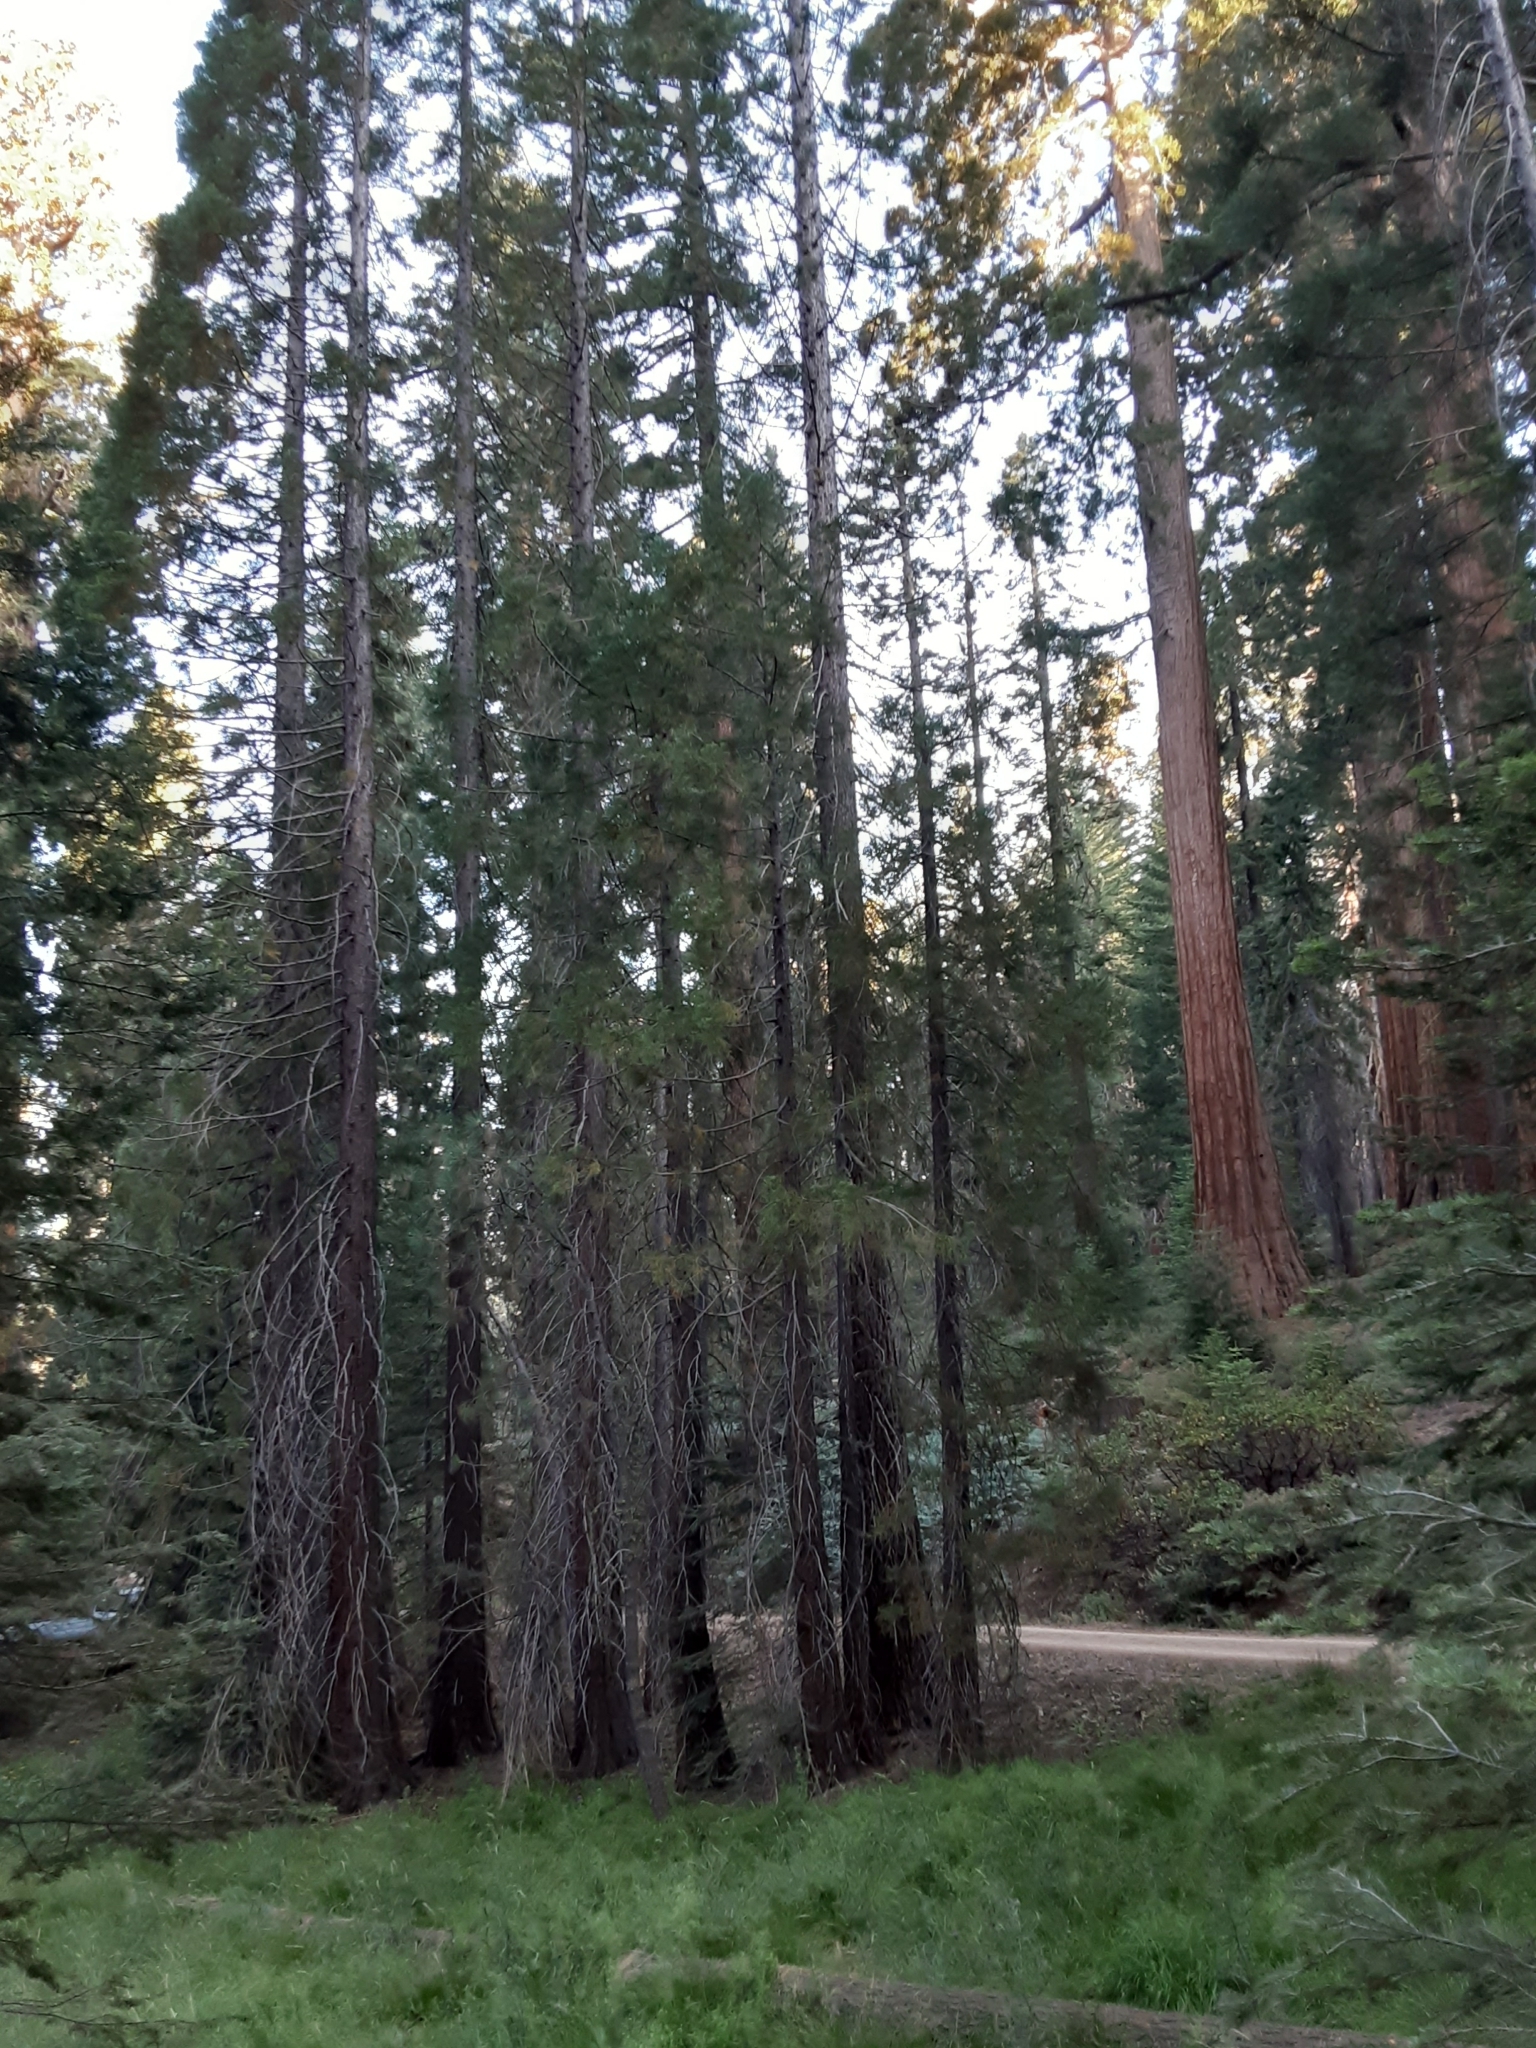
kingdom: Plantae
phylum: Tracheophyta
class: Pinopsida
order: Pinales
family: Cupressaceae
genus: Sequoiadendron
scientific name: Sequoiadendron giganteum
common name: Wellingtonia
